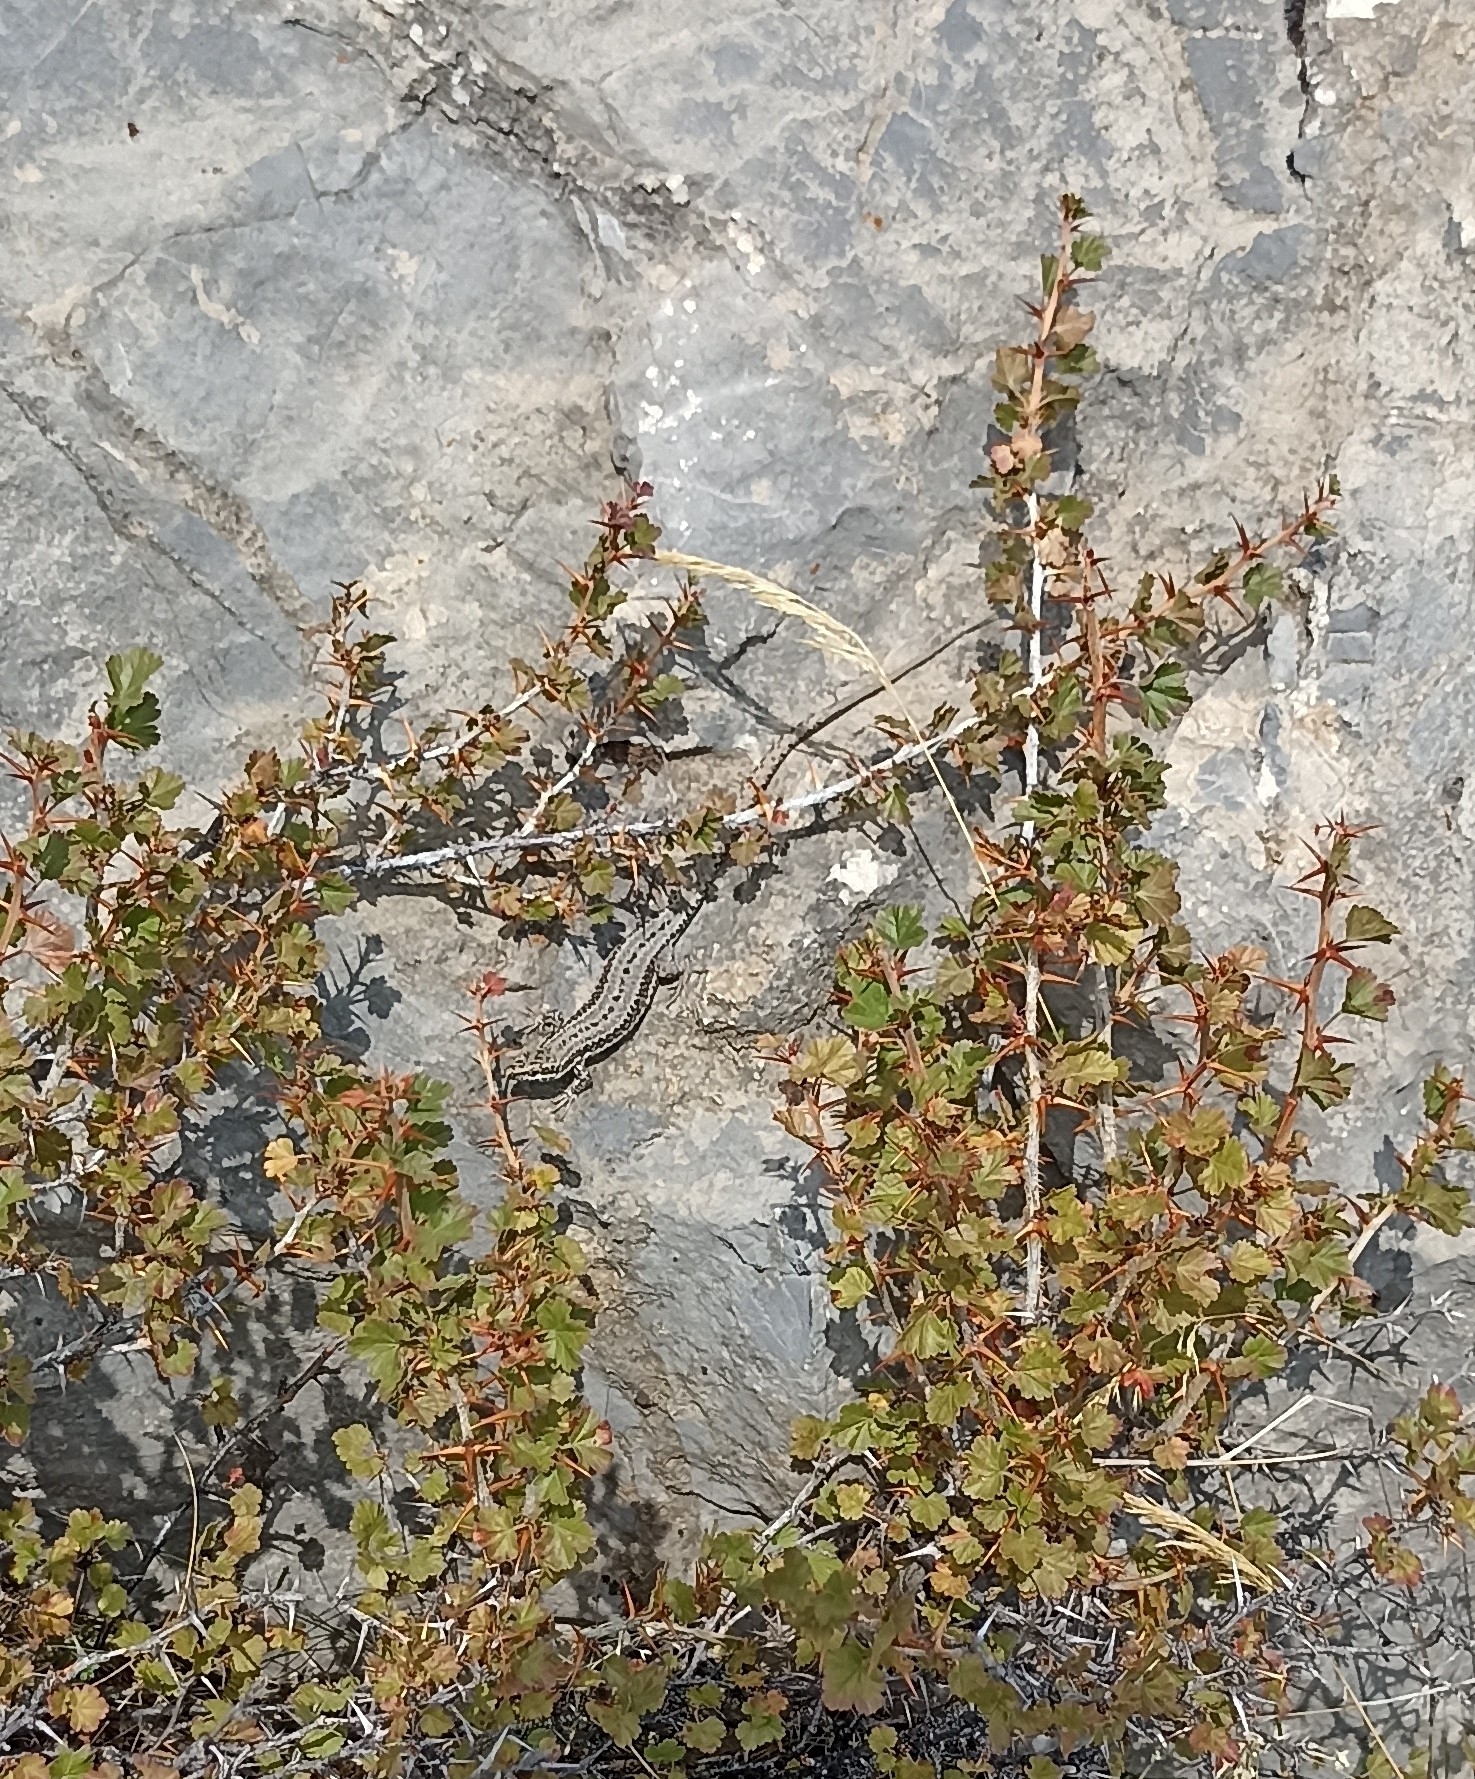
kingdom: Animalia
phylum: Chordata
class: Squamata
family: Lacertidae
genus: Podarcis
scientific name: Podarcis muralis
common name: Common wall lizard
